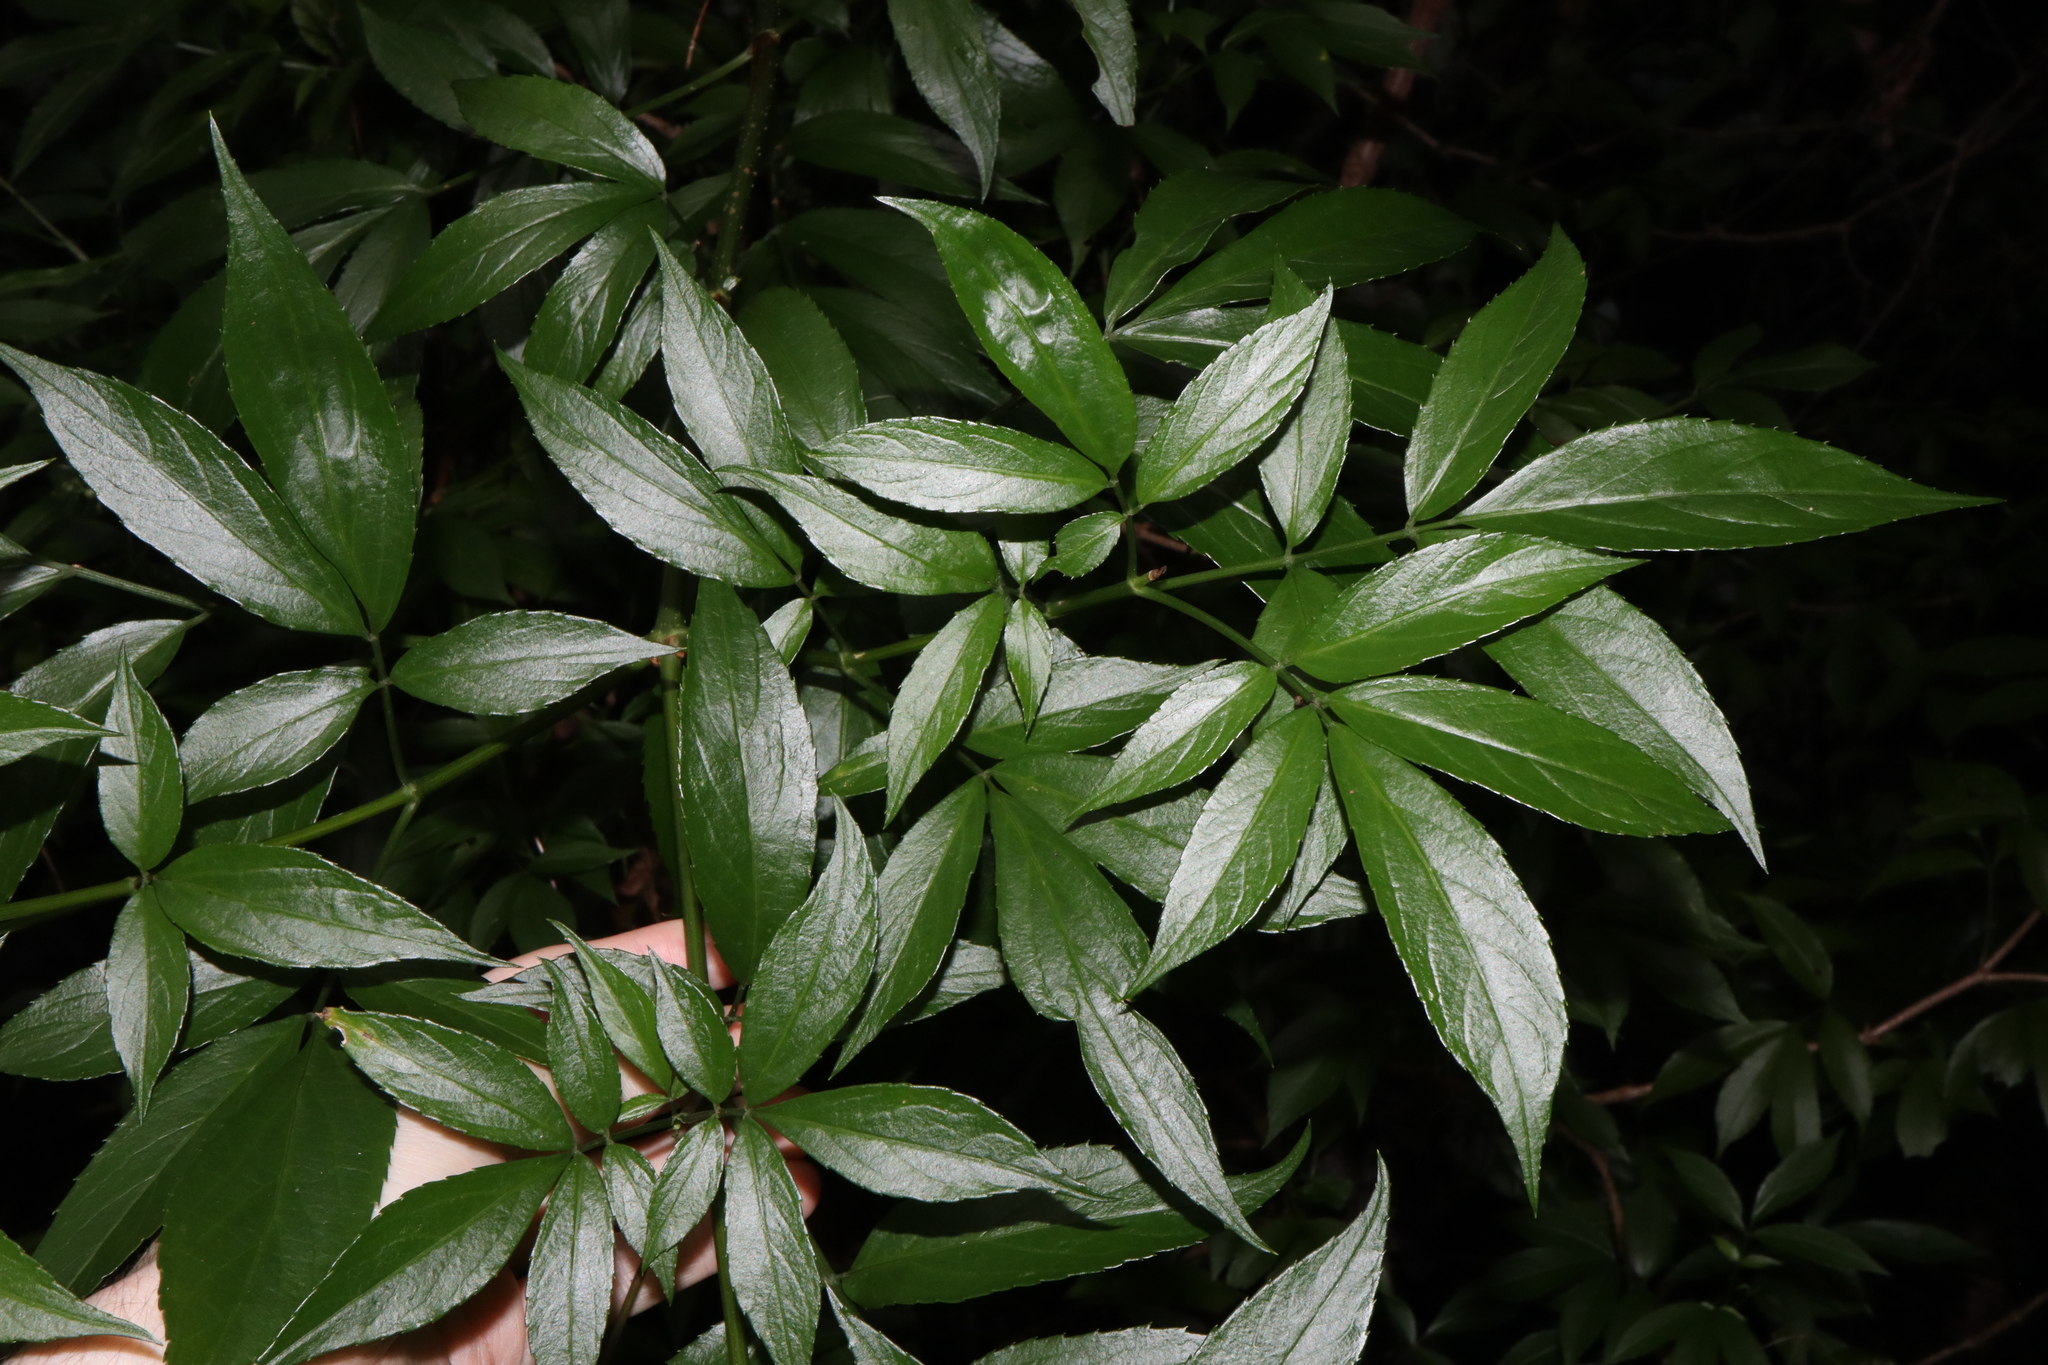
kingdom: Plantae
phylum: Tracheophyta
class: Magnoliopsida
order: Dipsacales
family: Viburnaceae
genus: Sambucus
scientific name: Sambucus australasica
